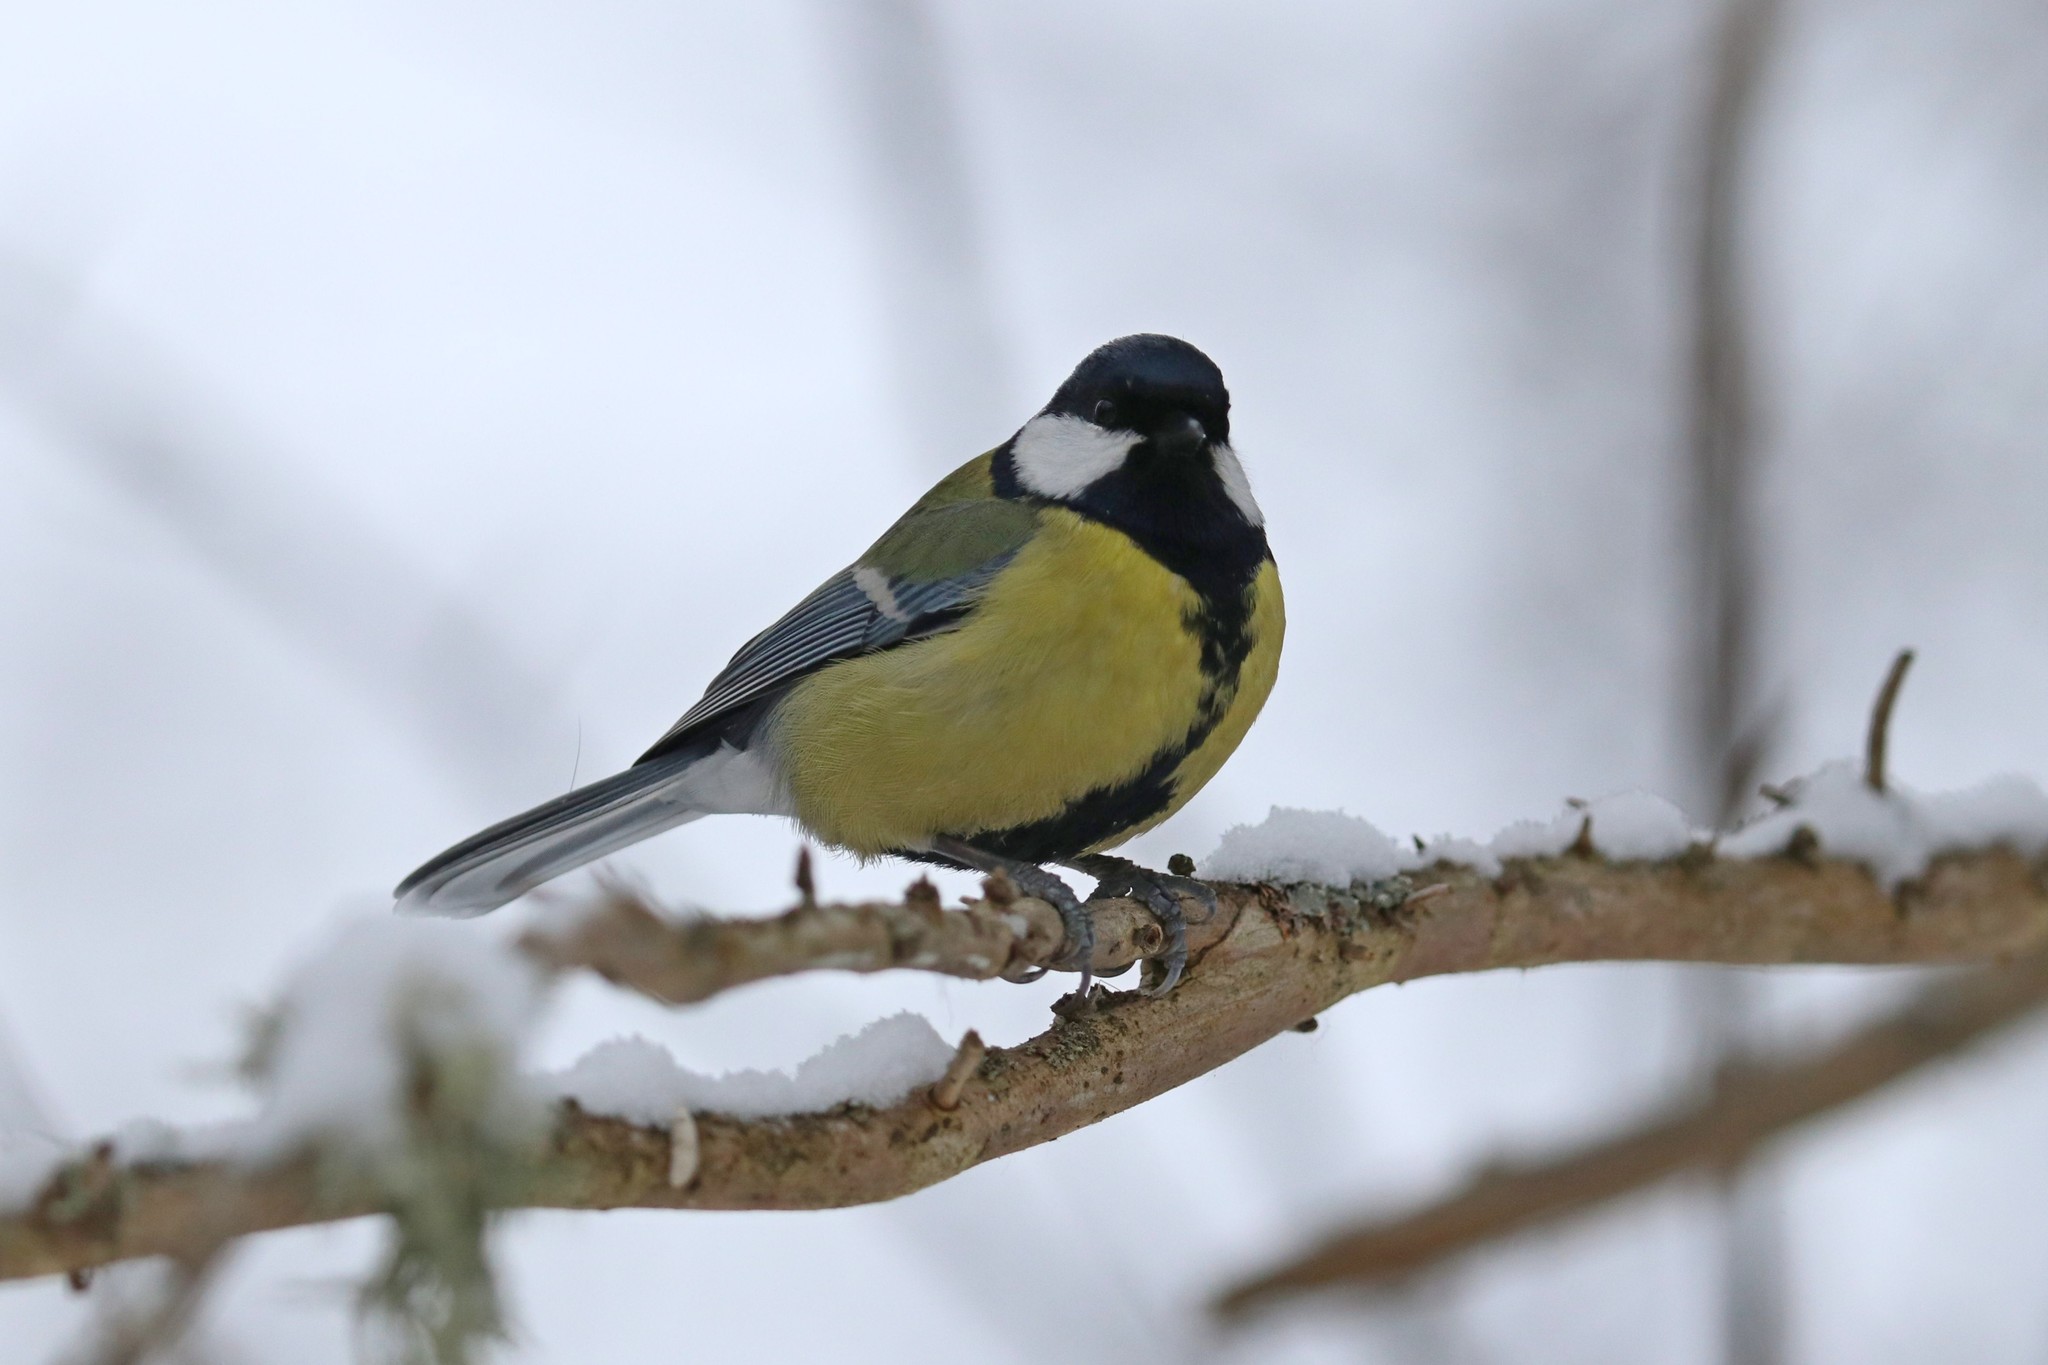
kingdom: Animalia
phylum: Chordata
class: Aves
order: Passeriformes
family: Paridae
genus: Parus
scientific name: Parus major
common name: Great tit
